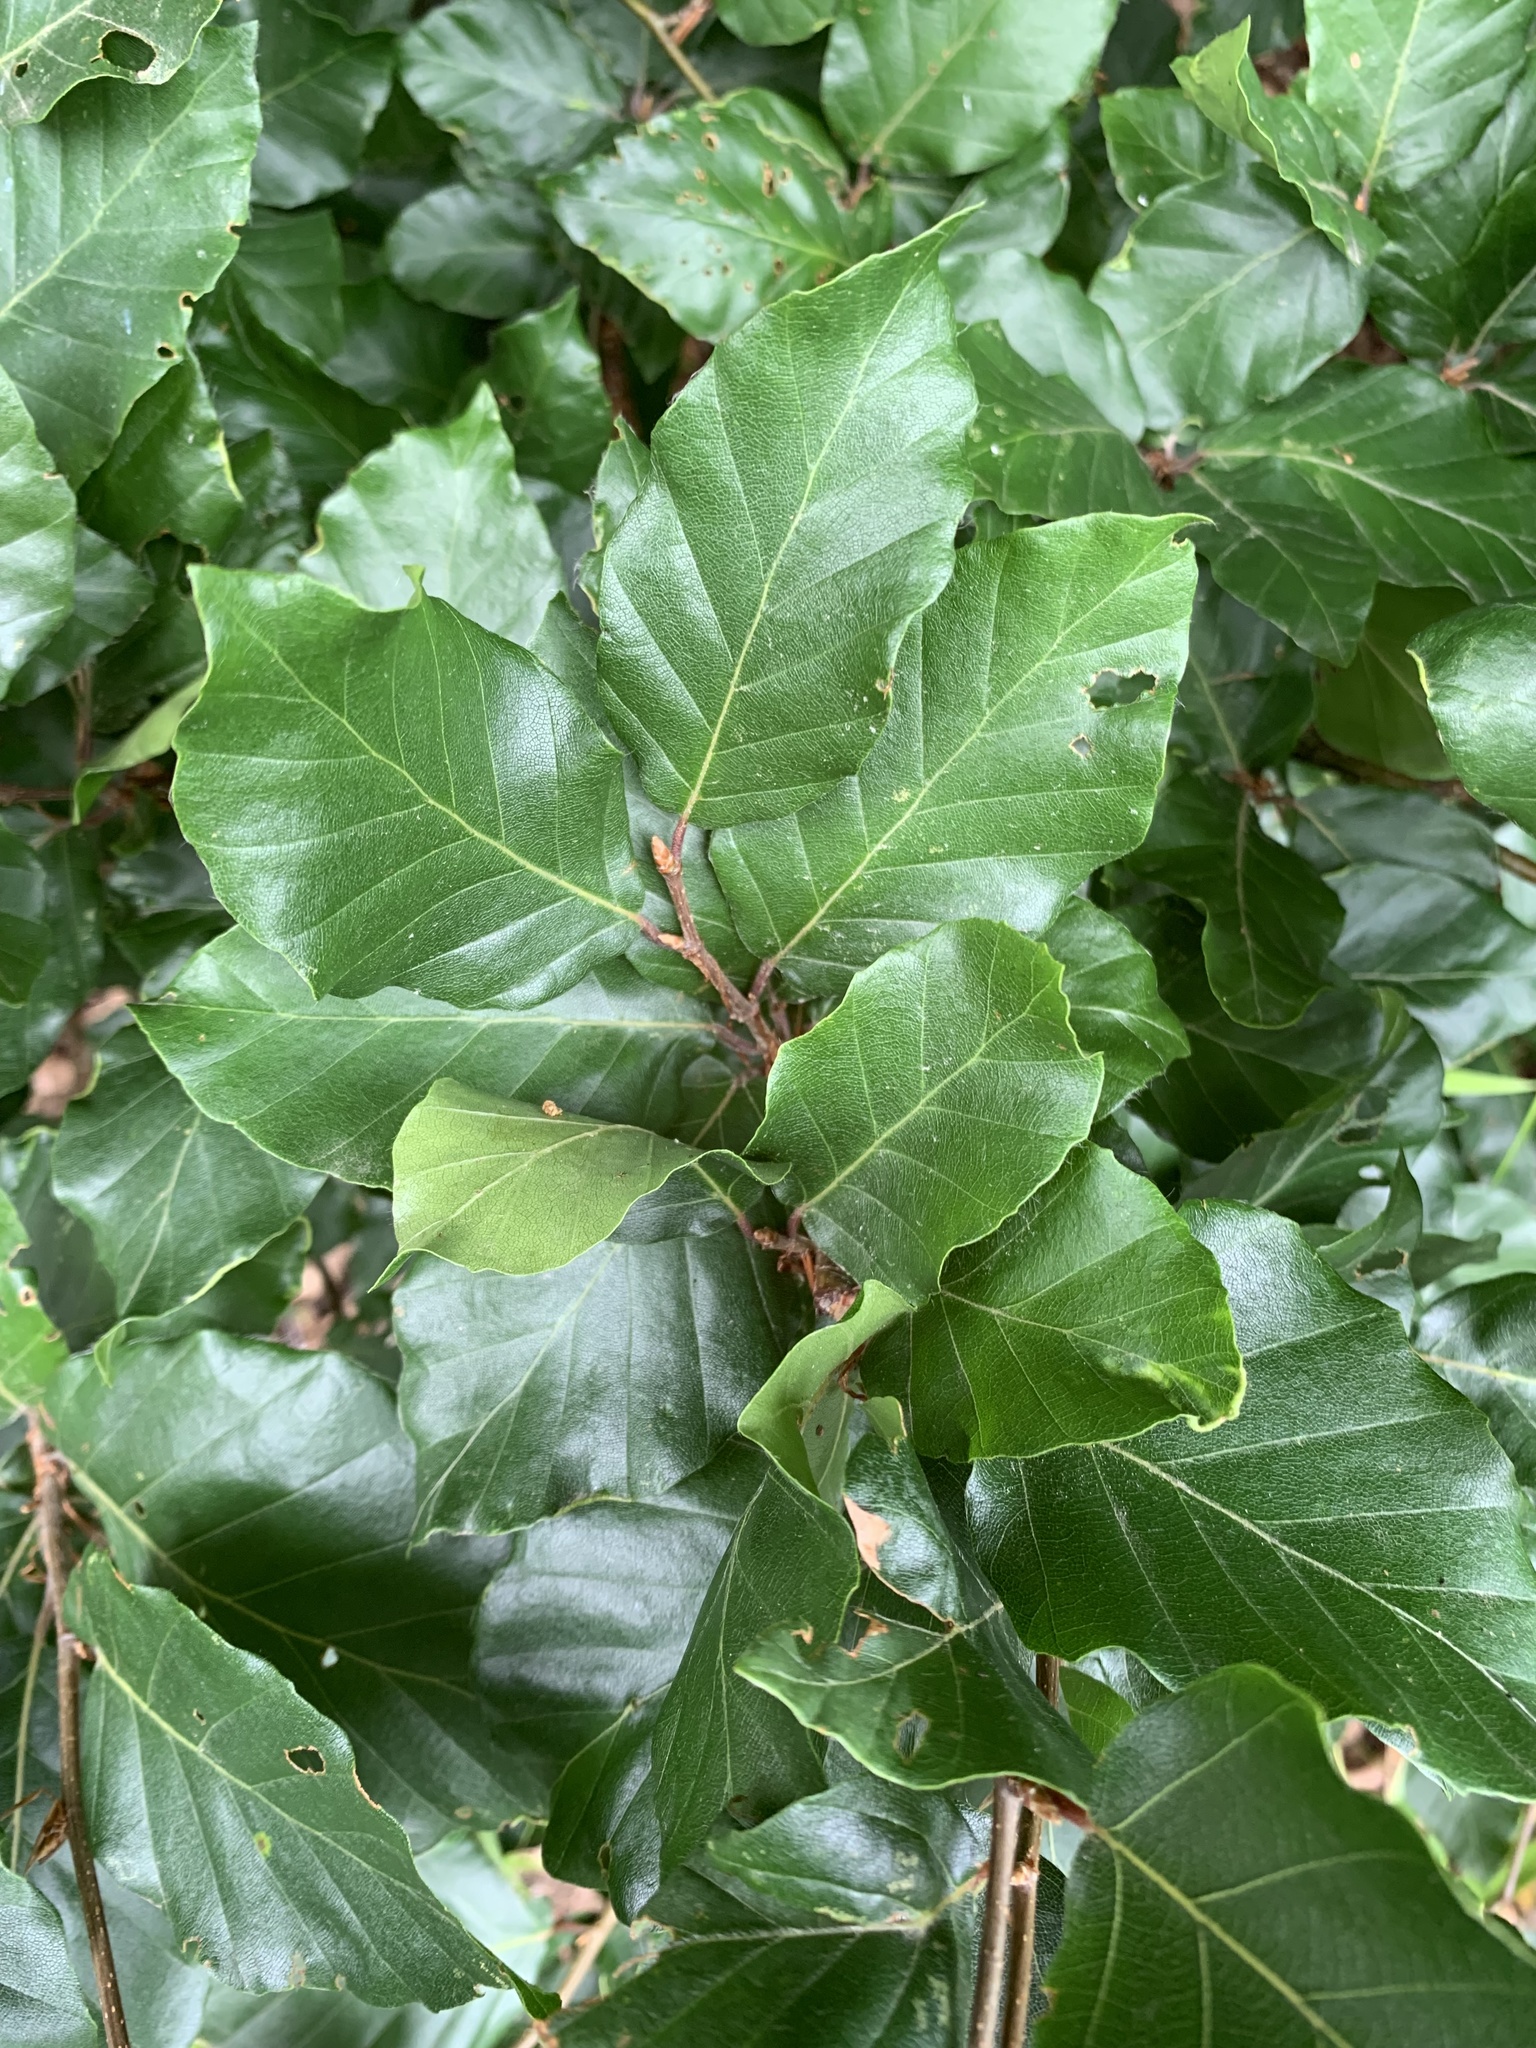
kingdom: Plantae
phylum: Tracheophyta
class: Magnoliopsida
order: Fagales
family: Fagaceae
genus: Fagus
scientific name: Fagus sylvatica
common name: Beech
